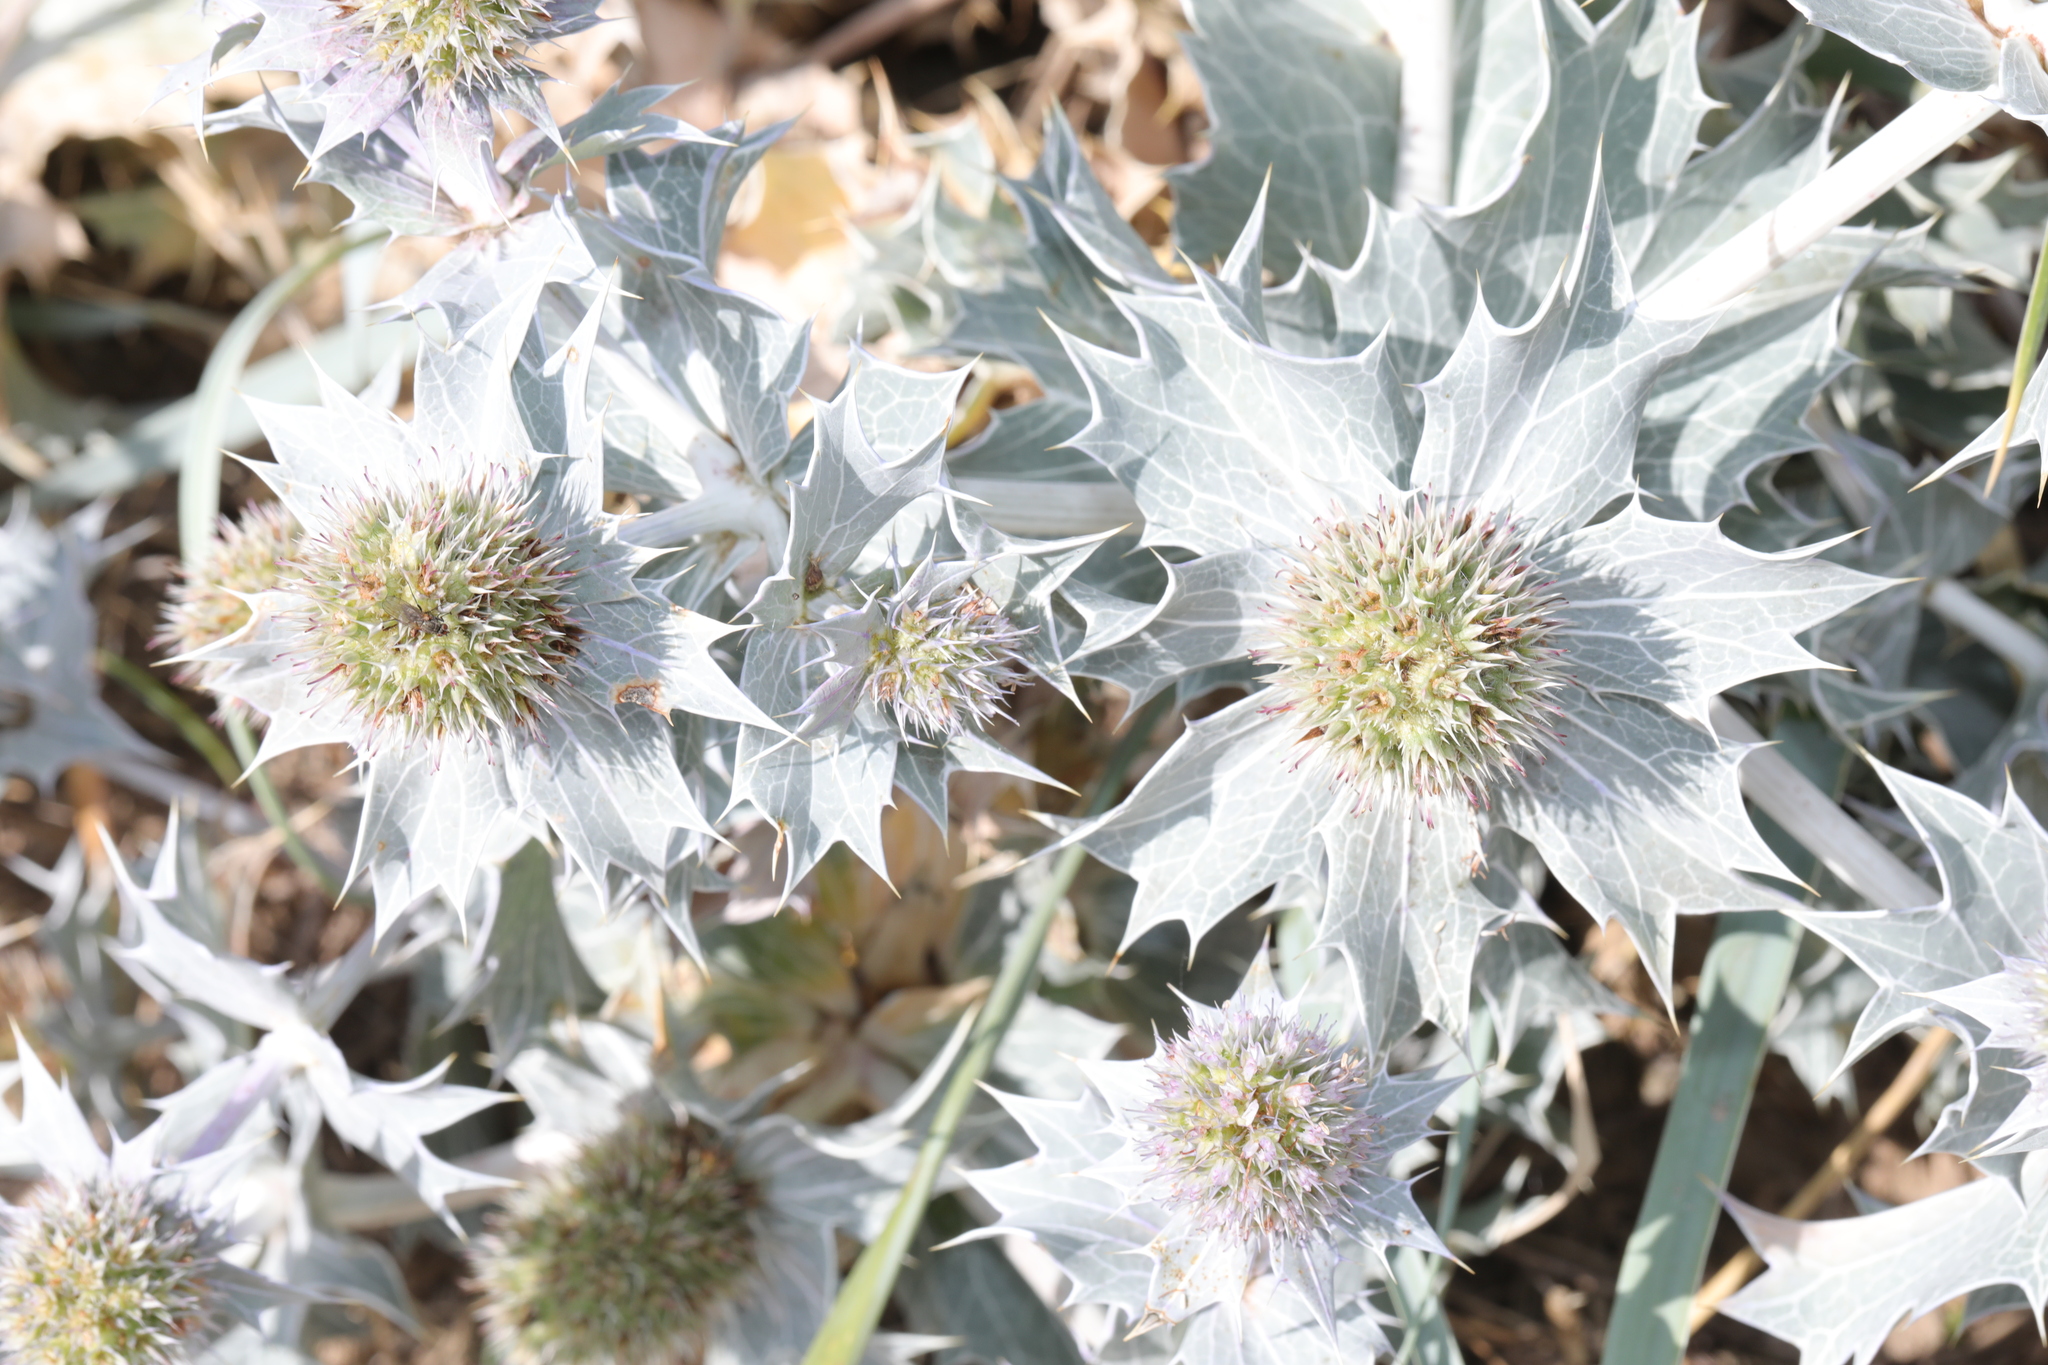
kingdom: Plantae
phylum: Tracheophyta
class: Magnoliopsida
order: Apiales
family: Apiaceae
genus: Eryngium
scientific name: Eryngium maritimum
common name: Sea-holly
